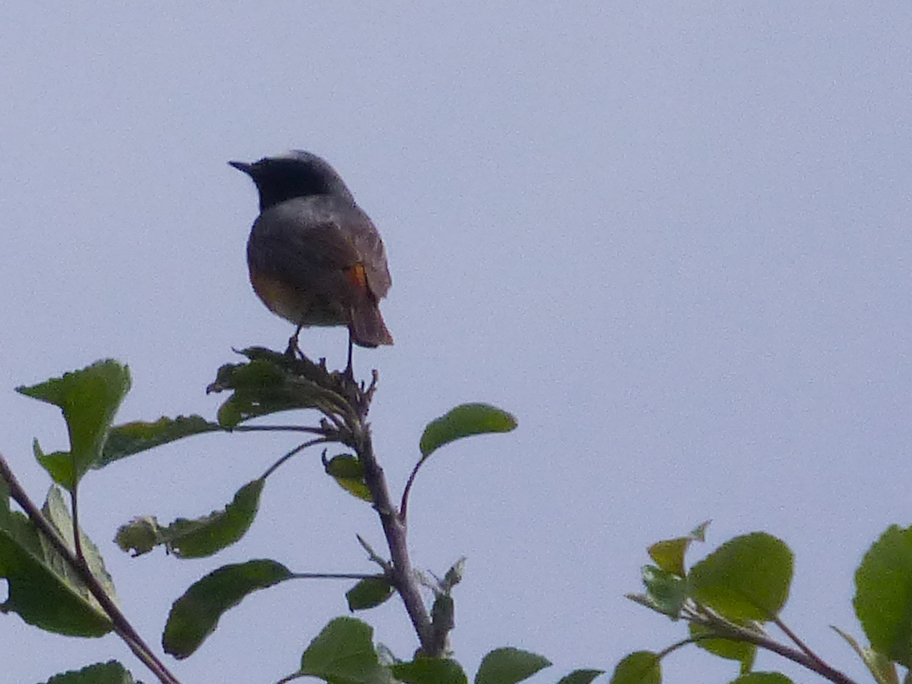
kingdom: Animalia
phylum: Chordata
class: Aves
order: Passeriformes
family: Muscicapidae
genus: Phoenicurus
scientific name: Phoenicurus phoenicurus
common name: Common redstart
